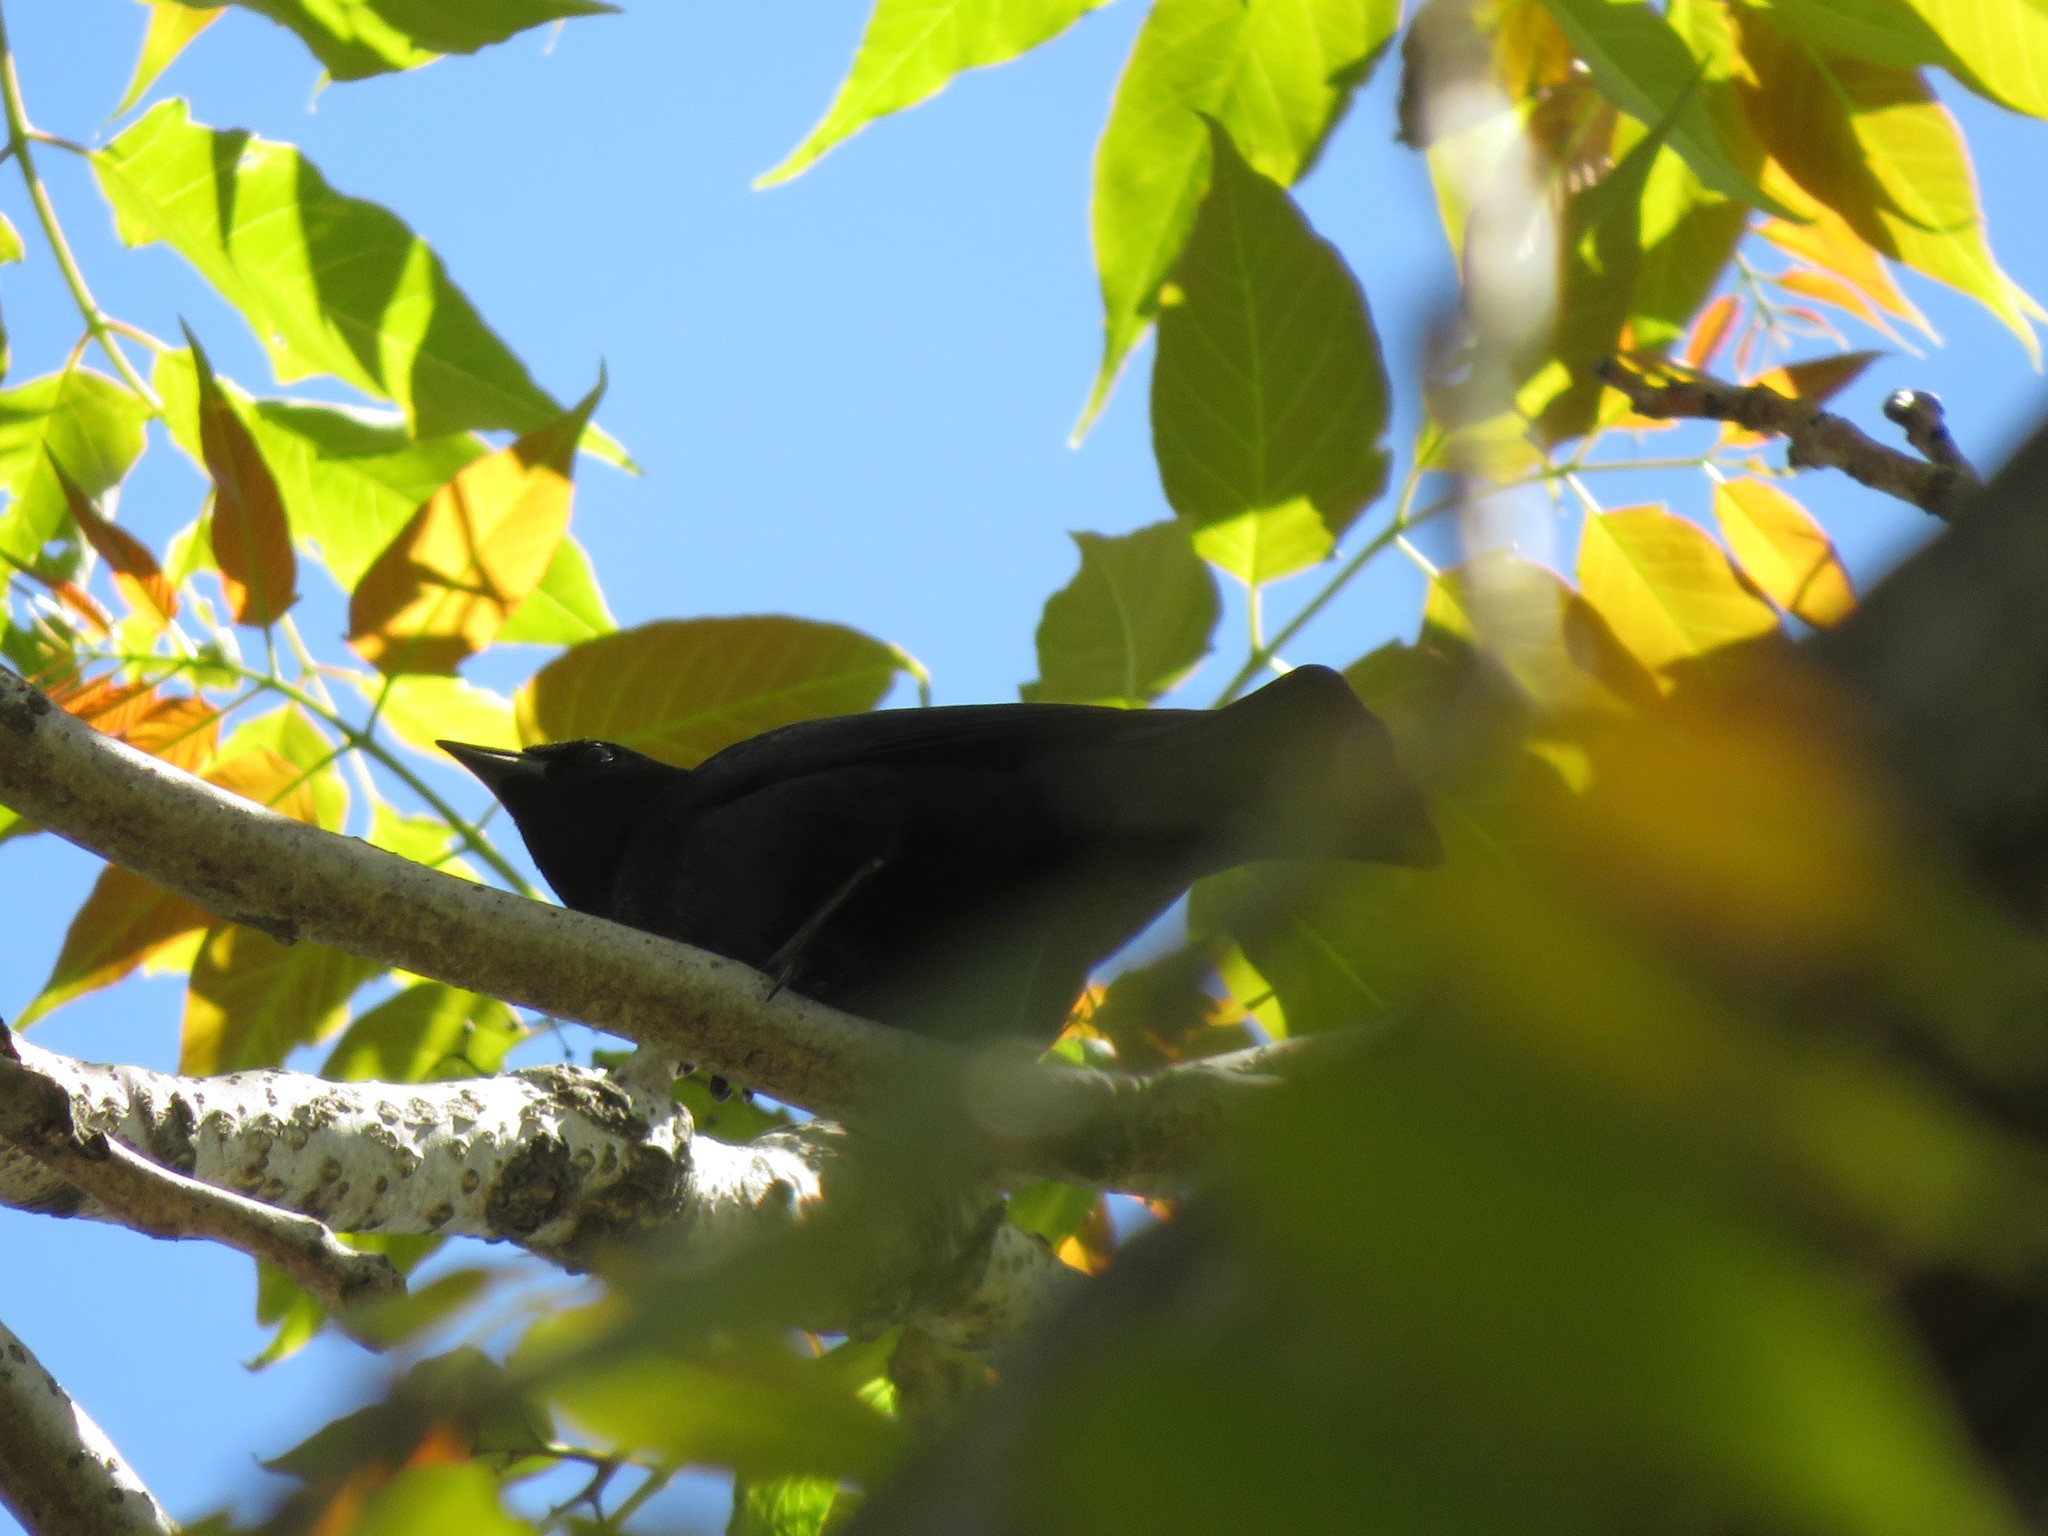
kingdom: Animalia
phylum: Chordata
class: Aves
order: Passeriformes
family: Icteridae
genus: Molothrus
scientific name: Molothrus bonariensis
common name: Shiny cowbird
